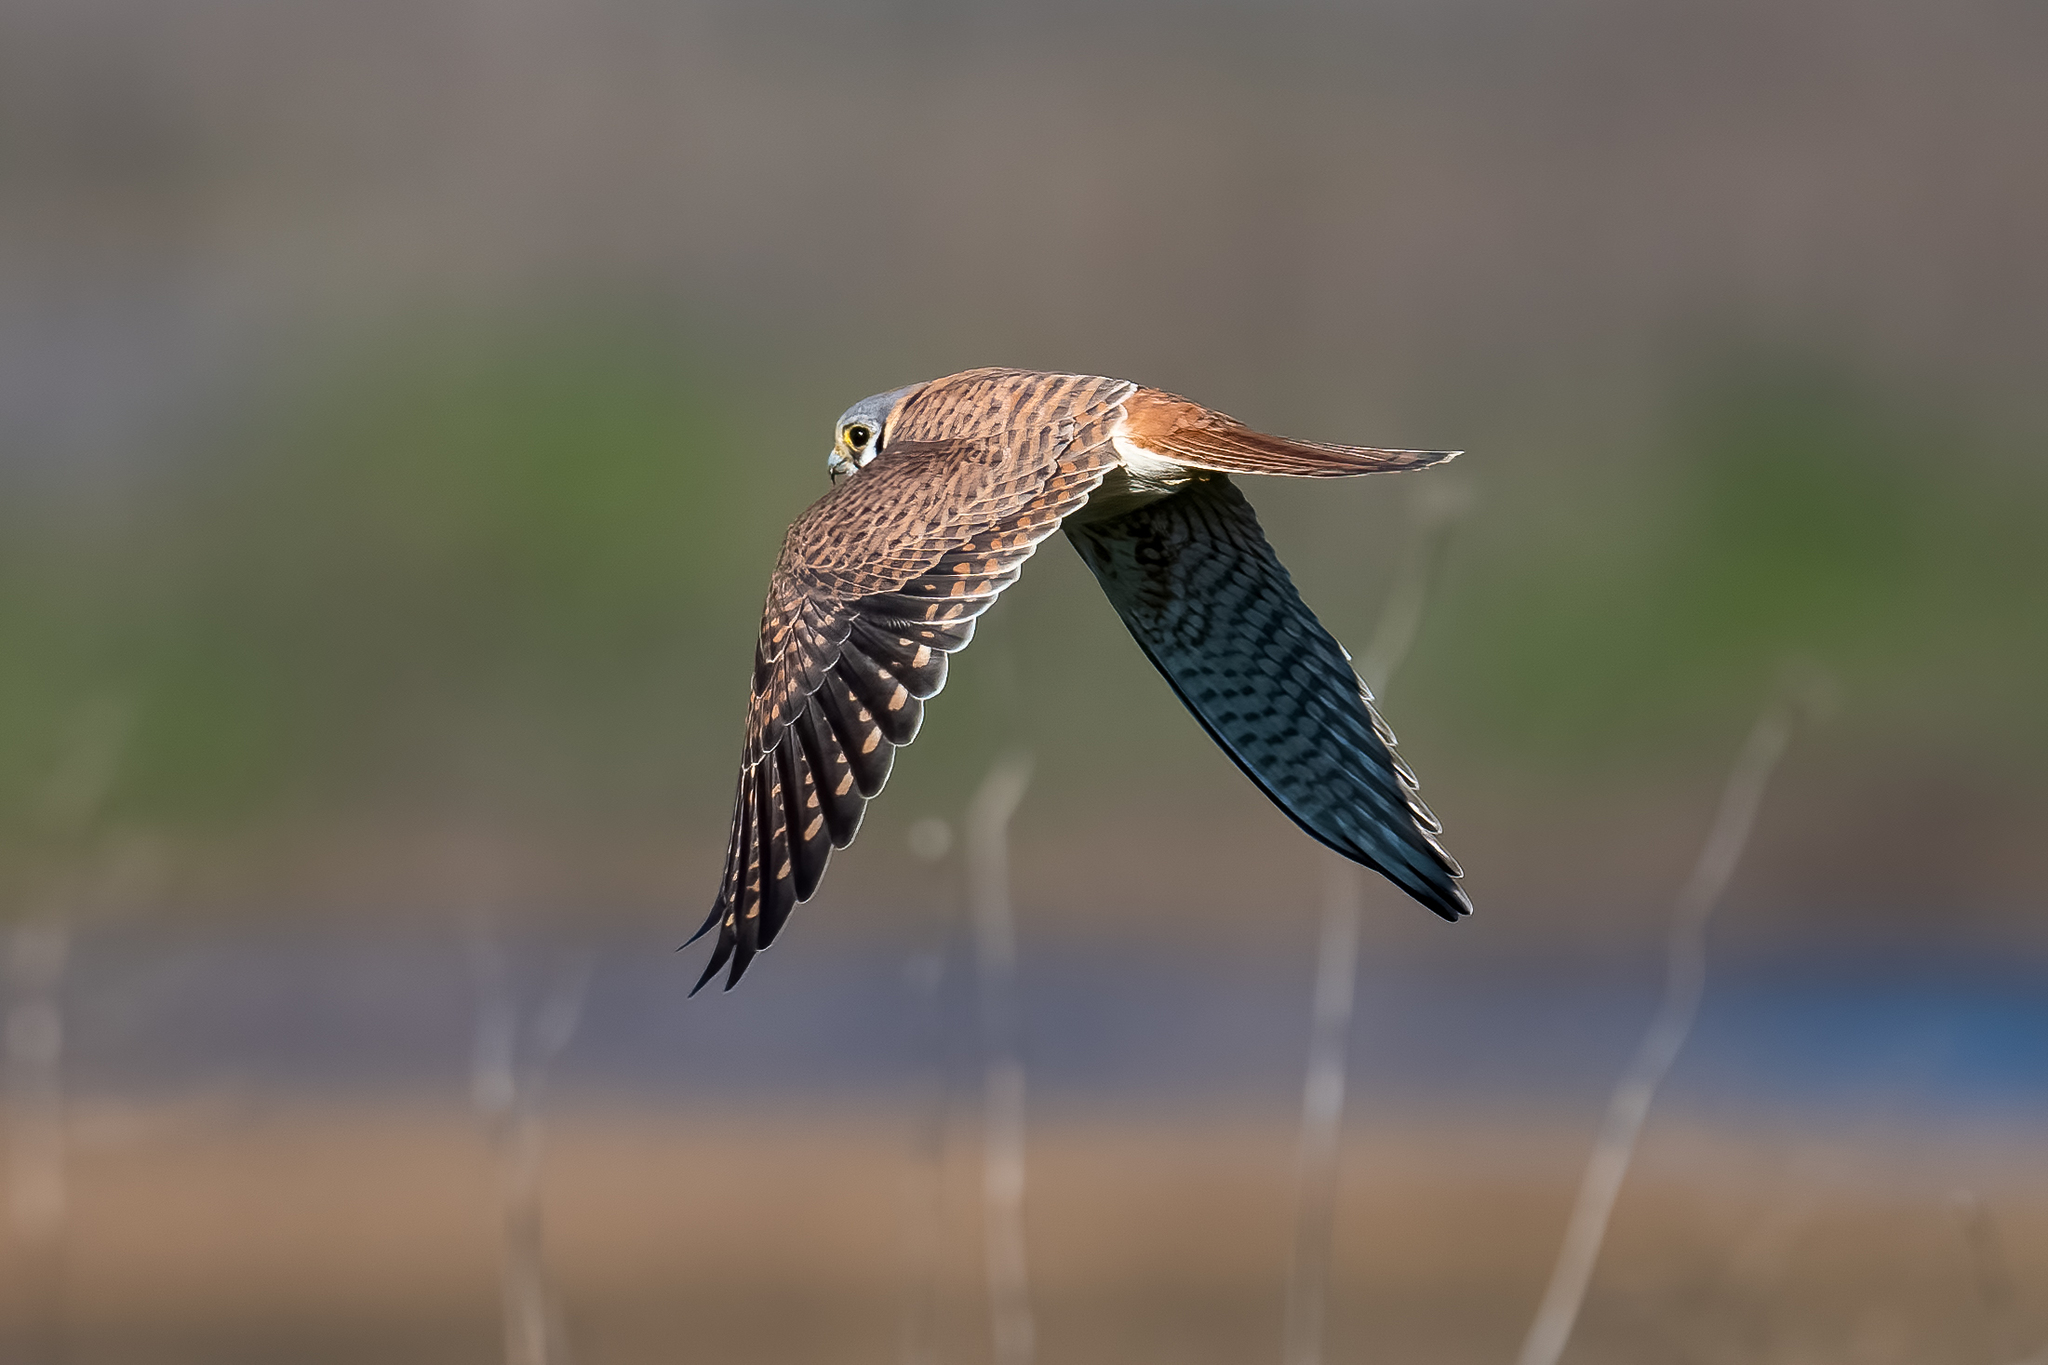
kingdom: Animalia
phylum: Chordata
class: Aves
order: Falconiformes
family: Falconidae
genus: Falco
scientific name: Falco sparverius
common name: American kestrel
